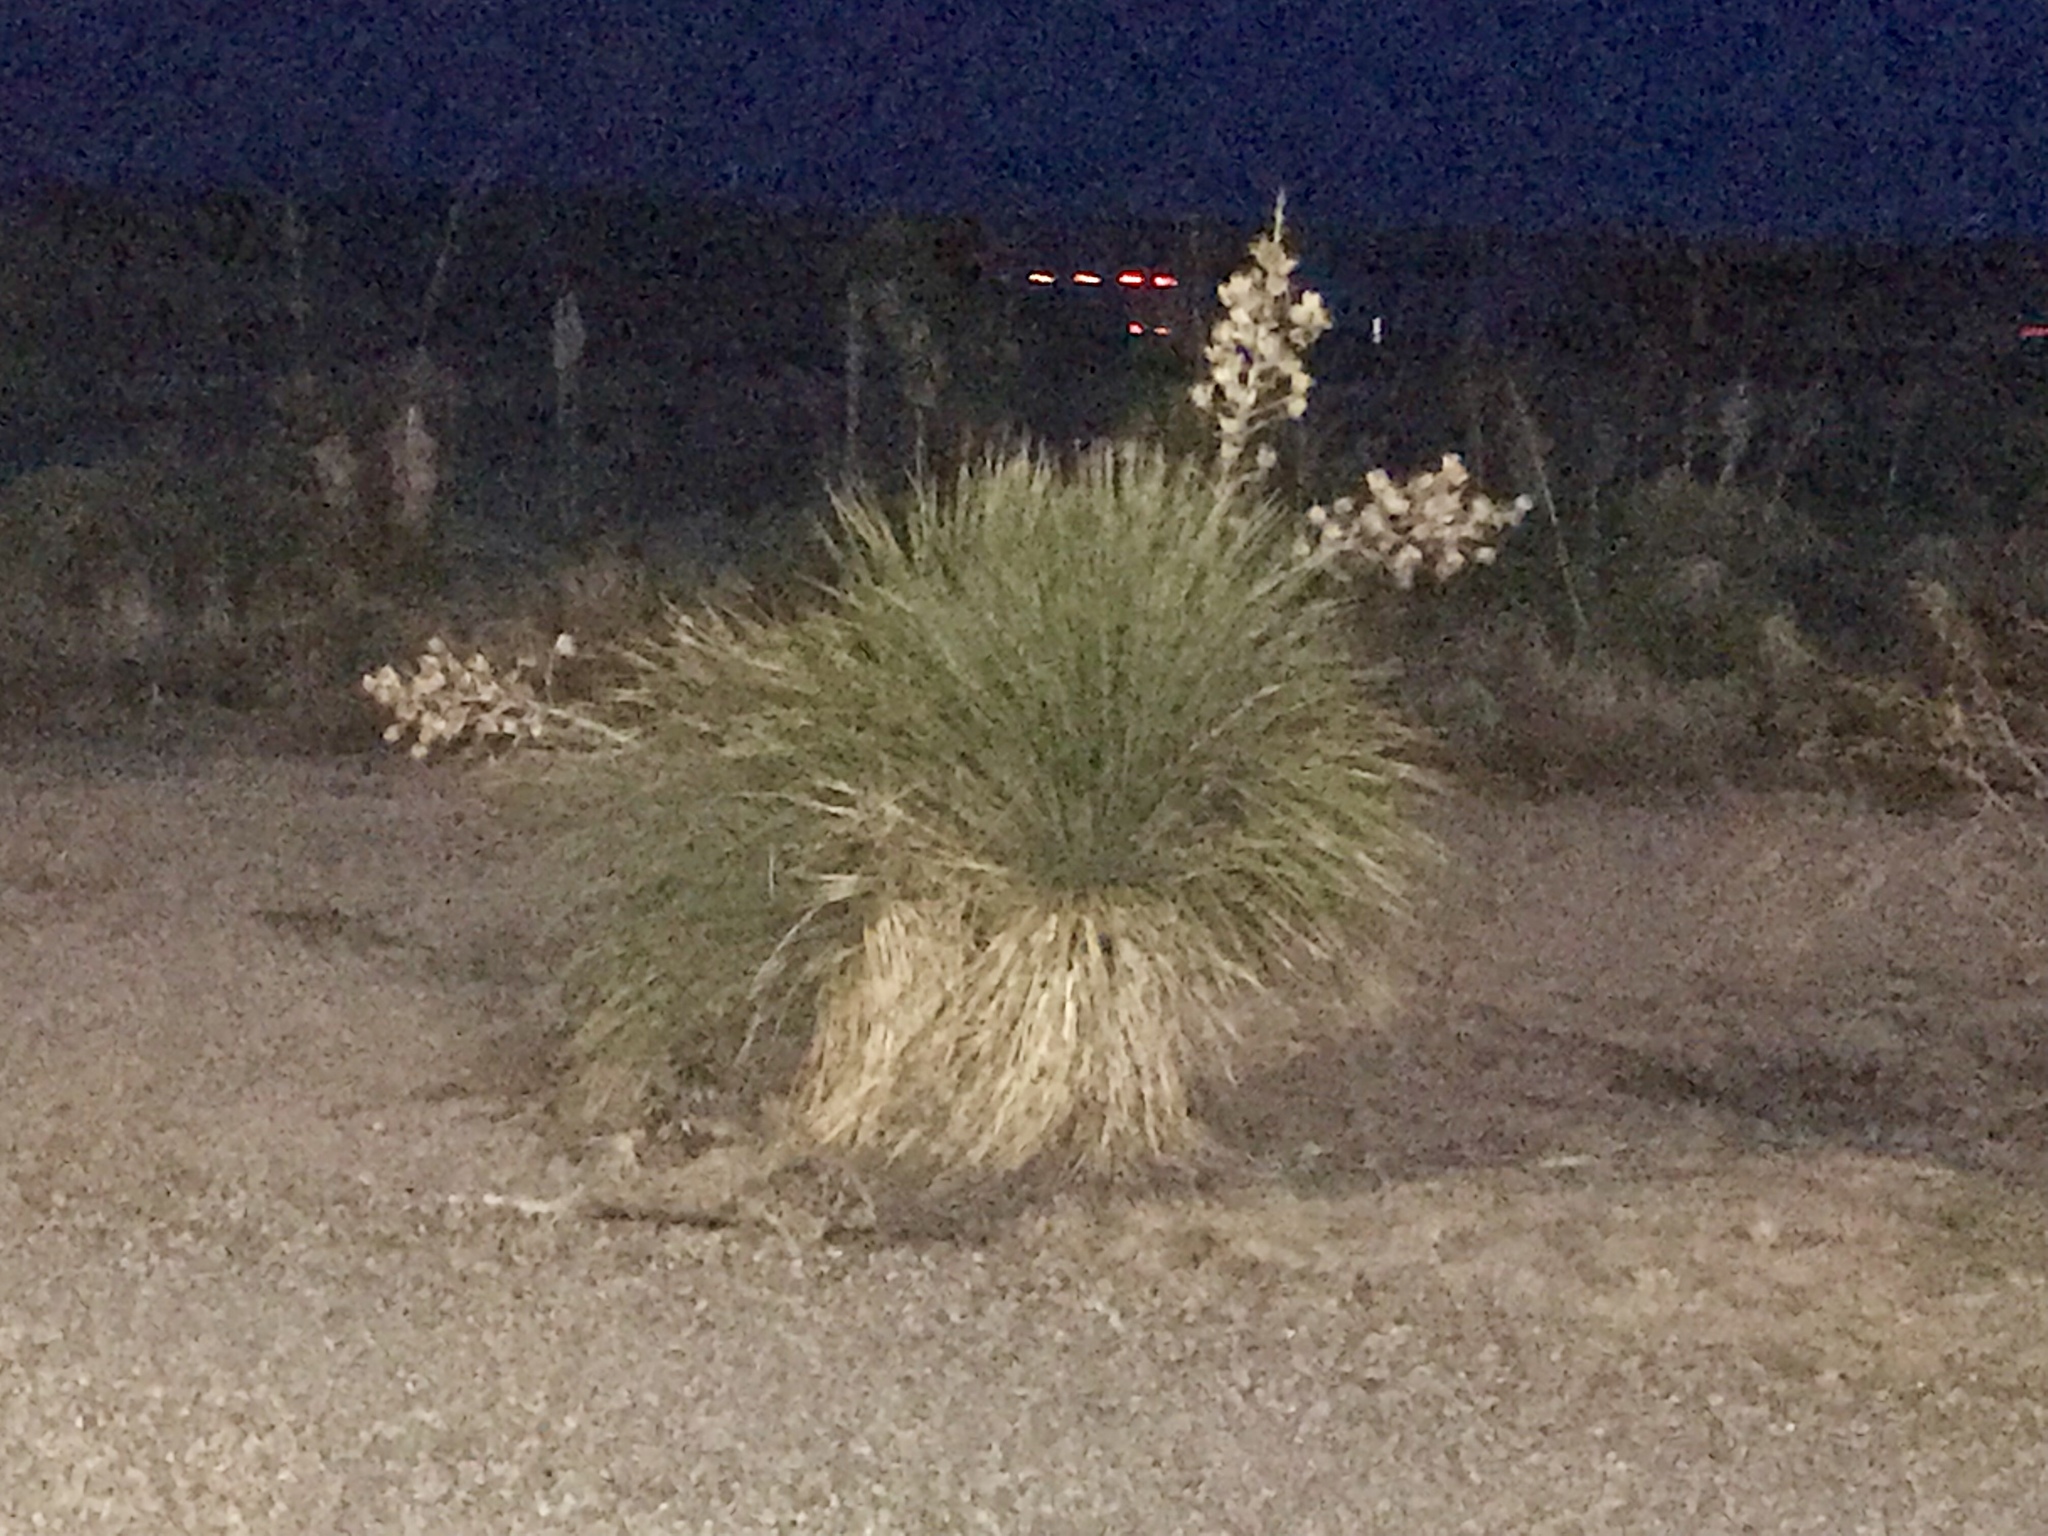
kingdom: Plantae
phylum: Tracheophyta
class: Liliopsida
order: Asparagales
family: Asparagaceae
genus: Yucca
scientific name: Yucca elata
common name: Palmella
